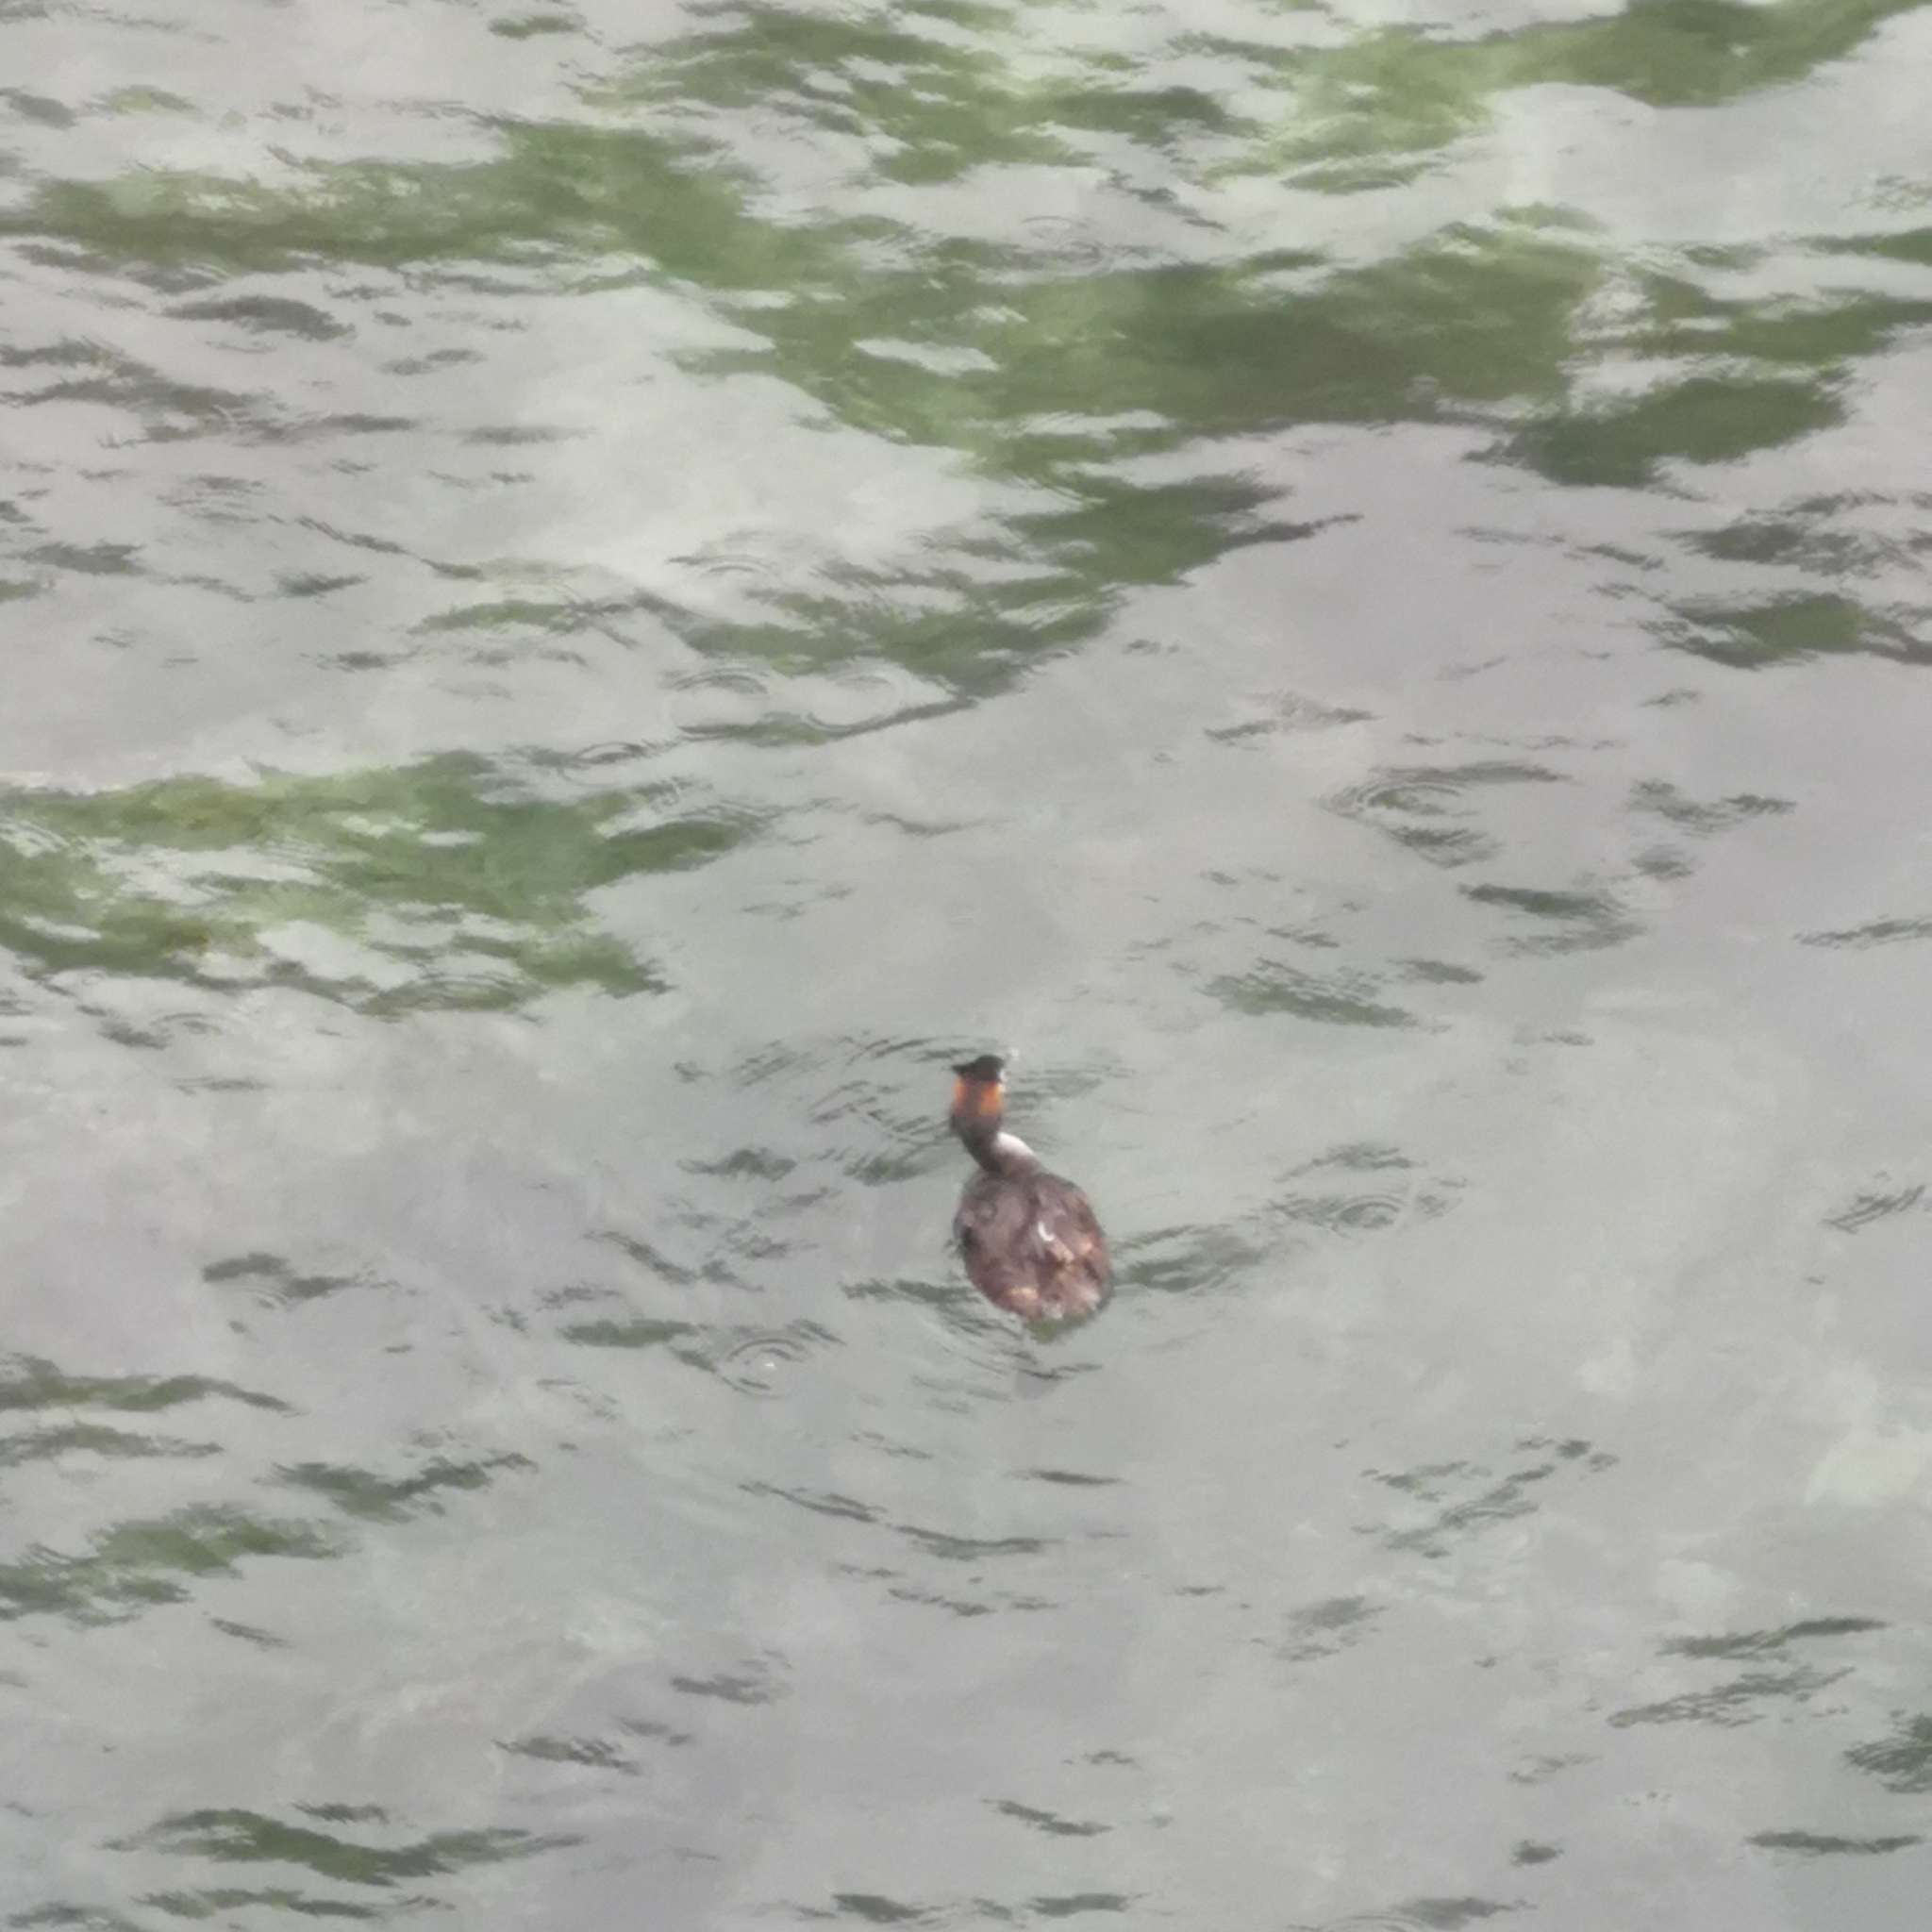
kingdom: Animalia
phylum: Chordata
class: Aves
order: Podicipediformes
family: Podicipedidae
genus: Podiceps
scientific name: Podiceps cristatus
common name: Great crested grebe
